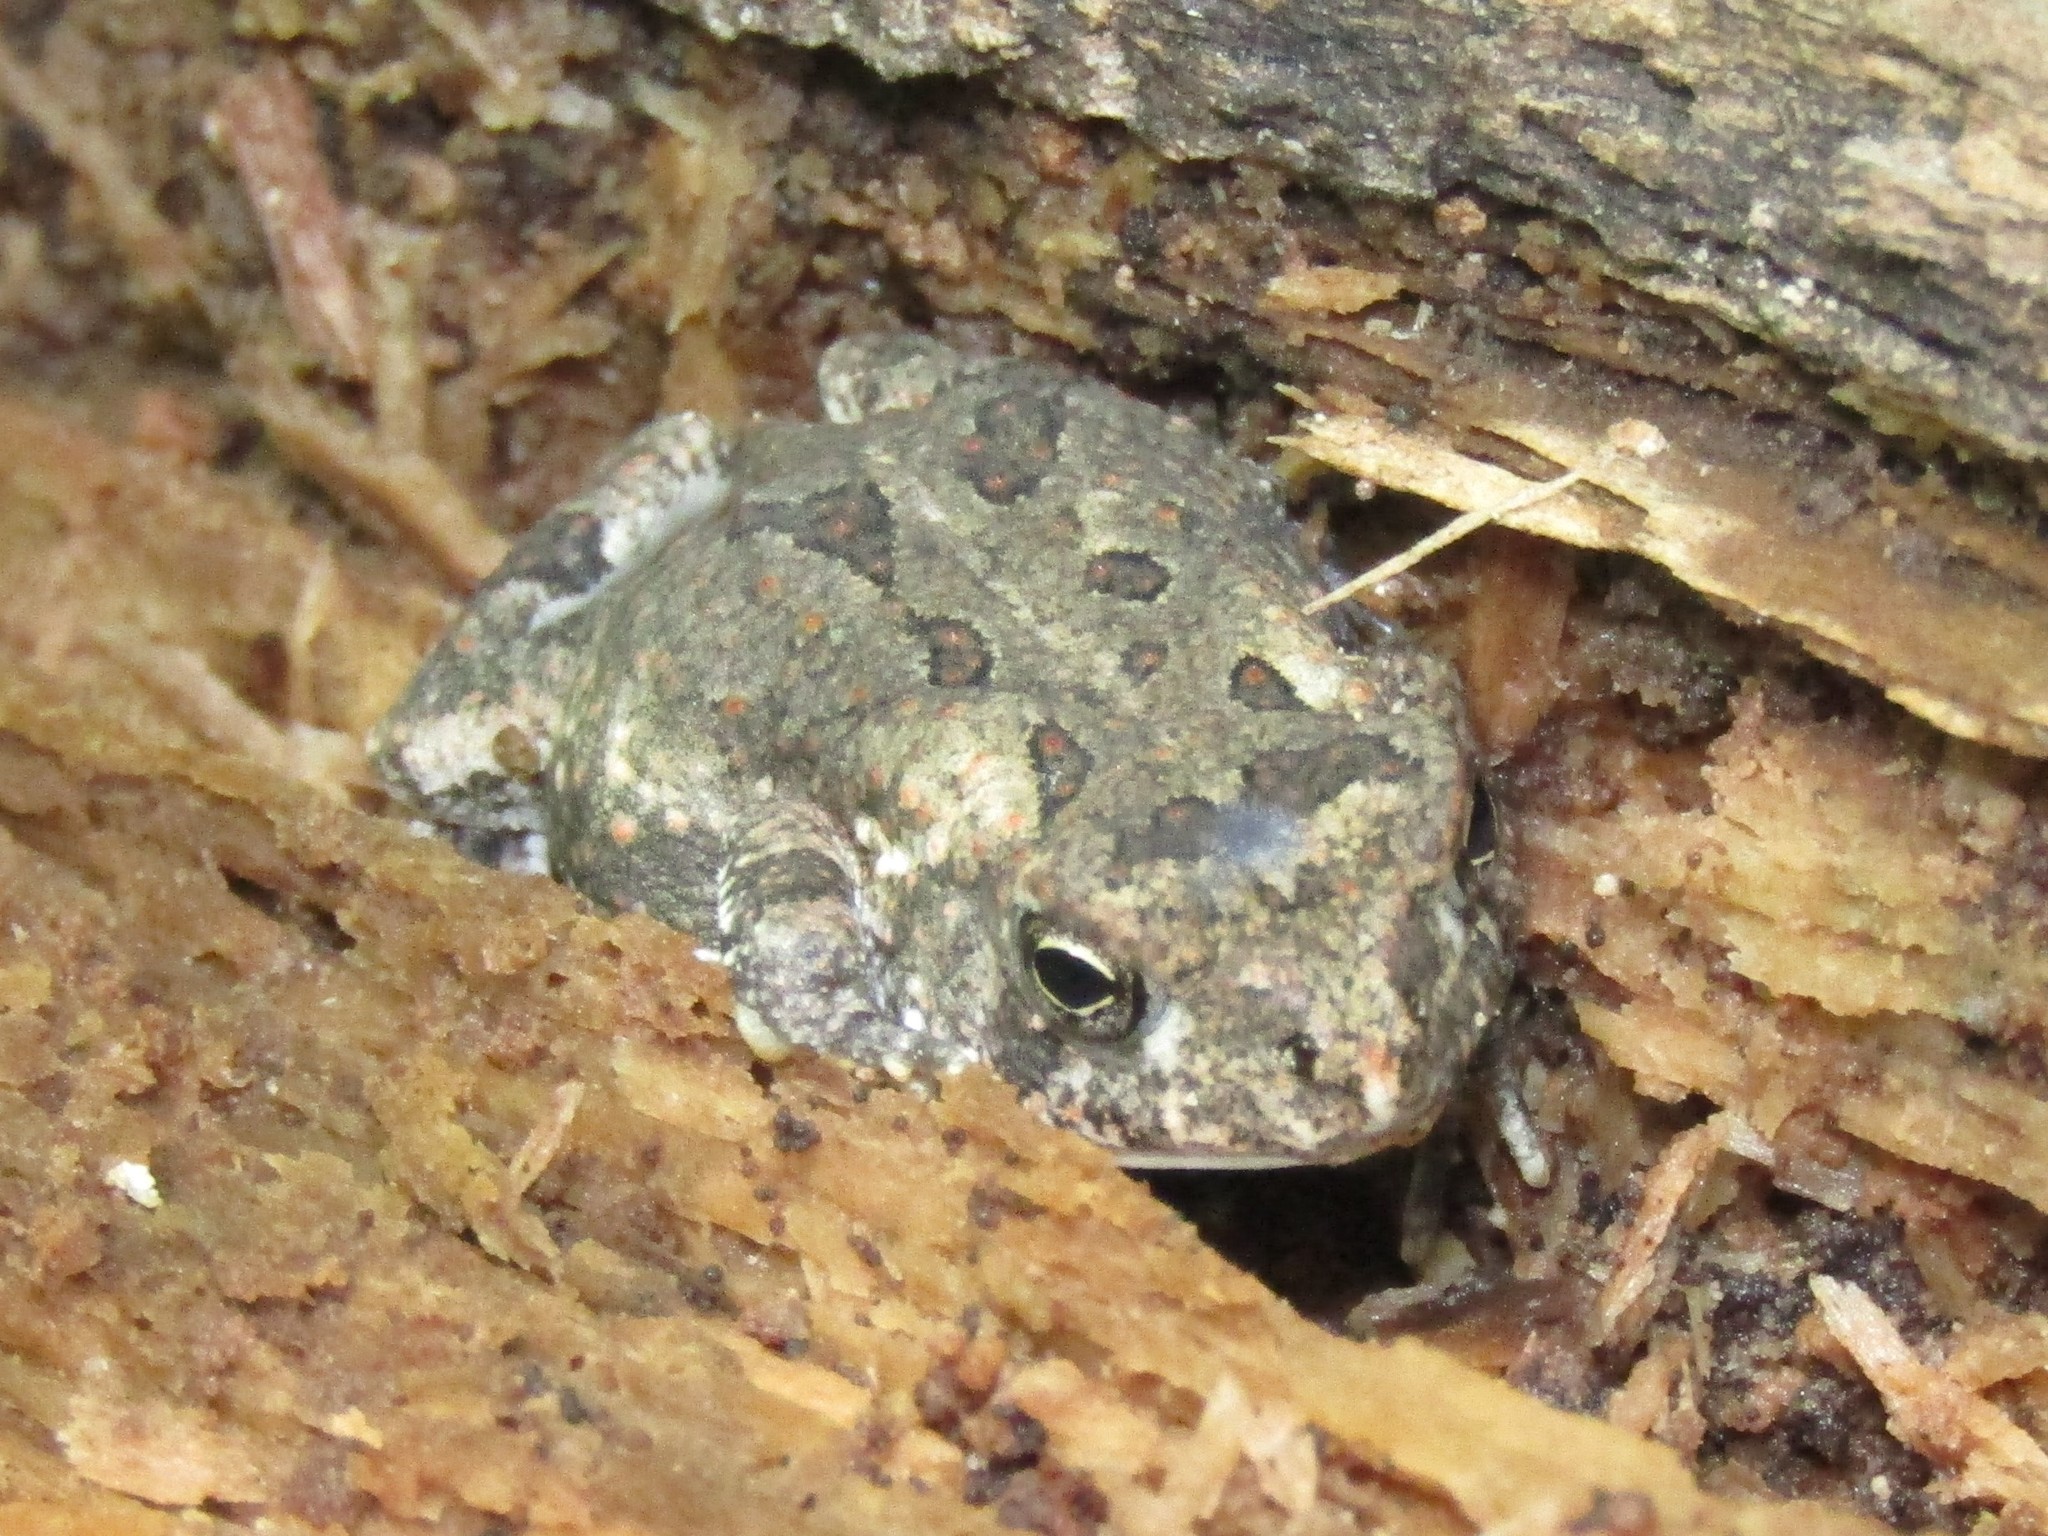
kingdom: Animalia
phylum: Chordata
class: Amphibia
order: Anura
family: Bufonidae
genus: Anaxyrus
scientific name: Anaxyrus fowleri
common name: Fowler's toad
